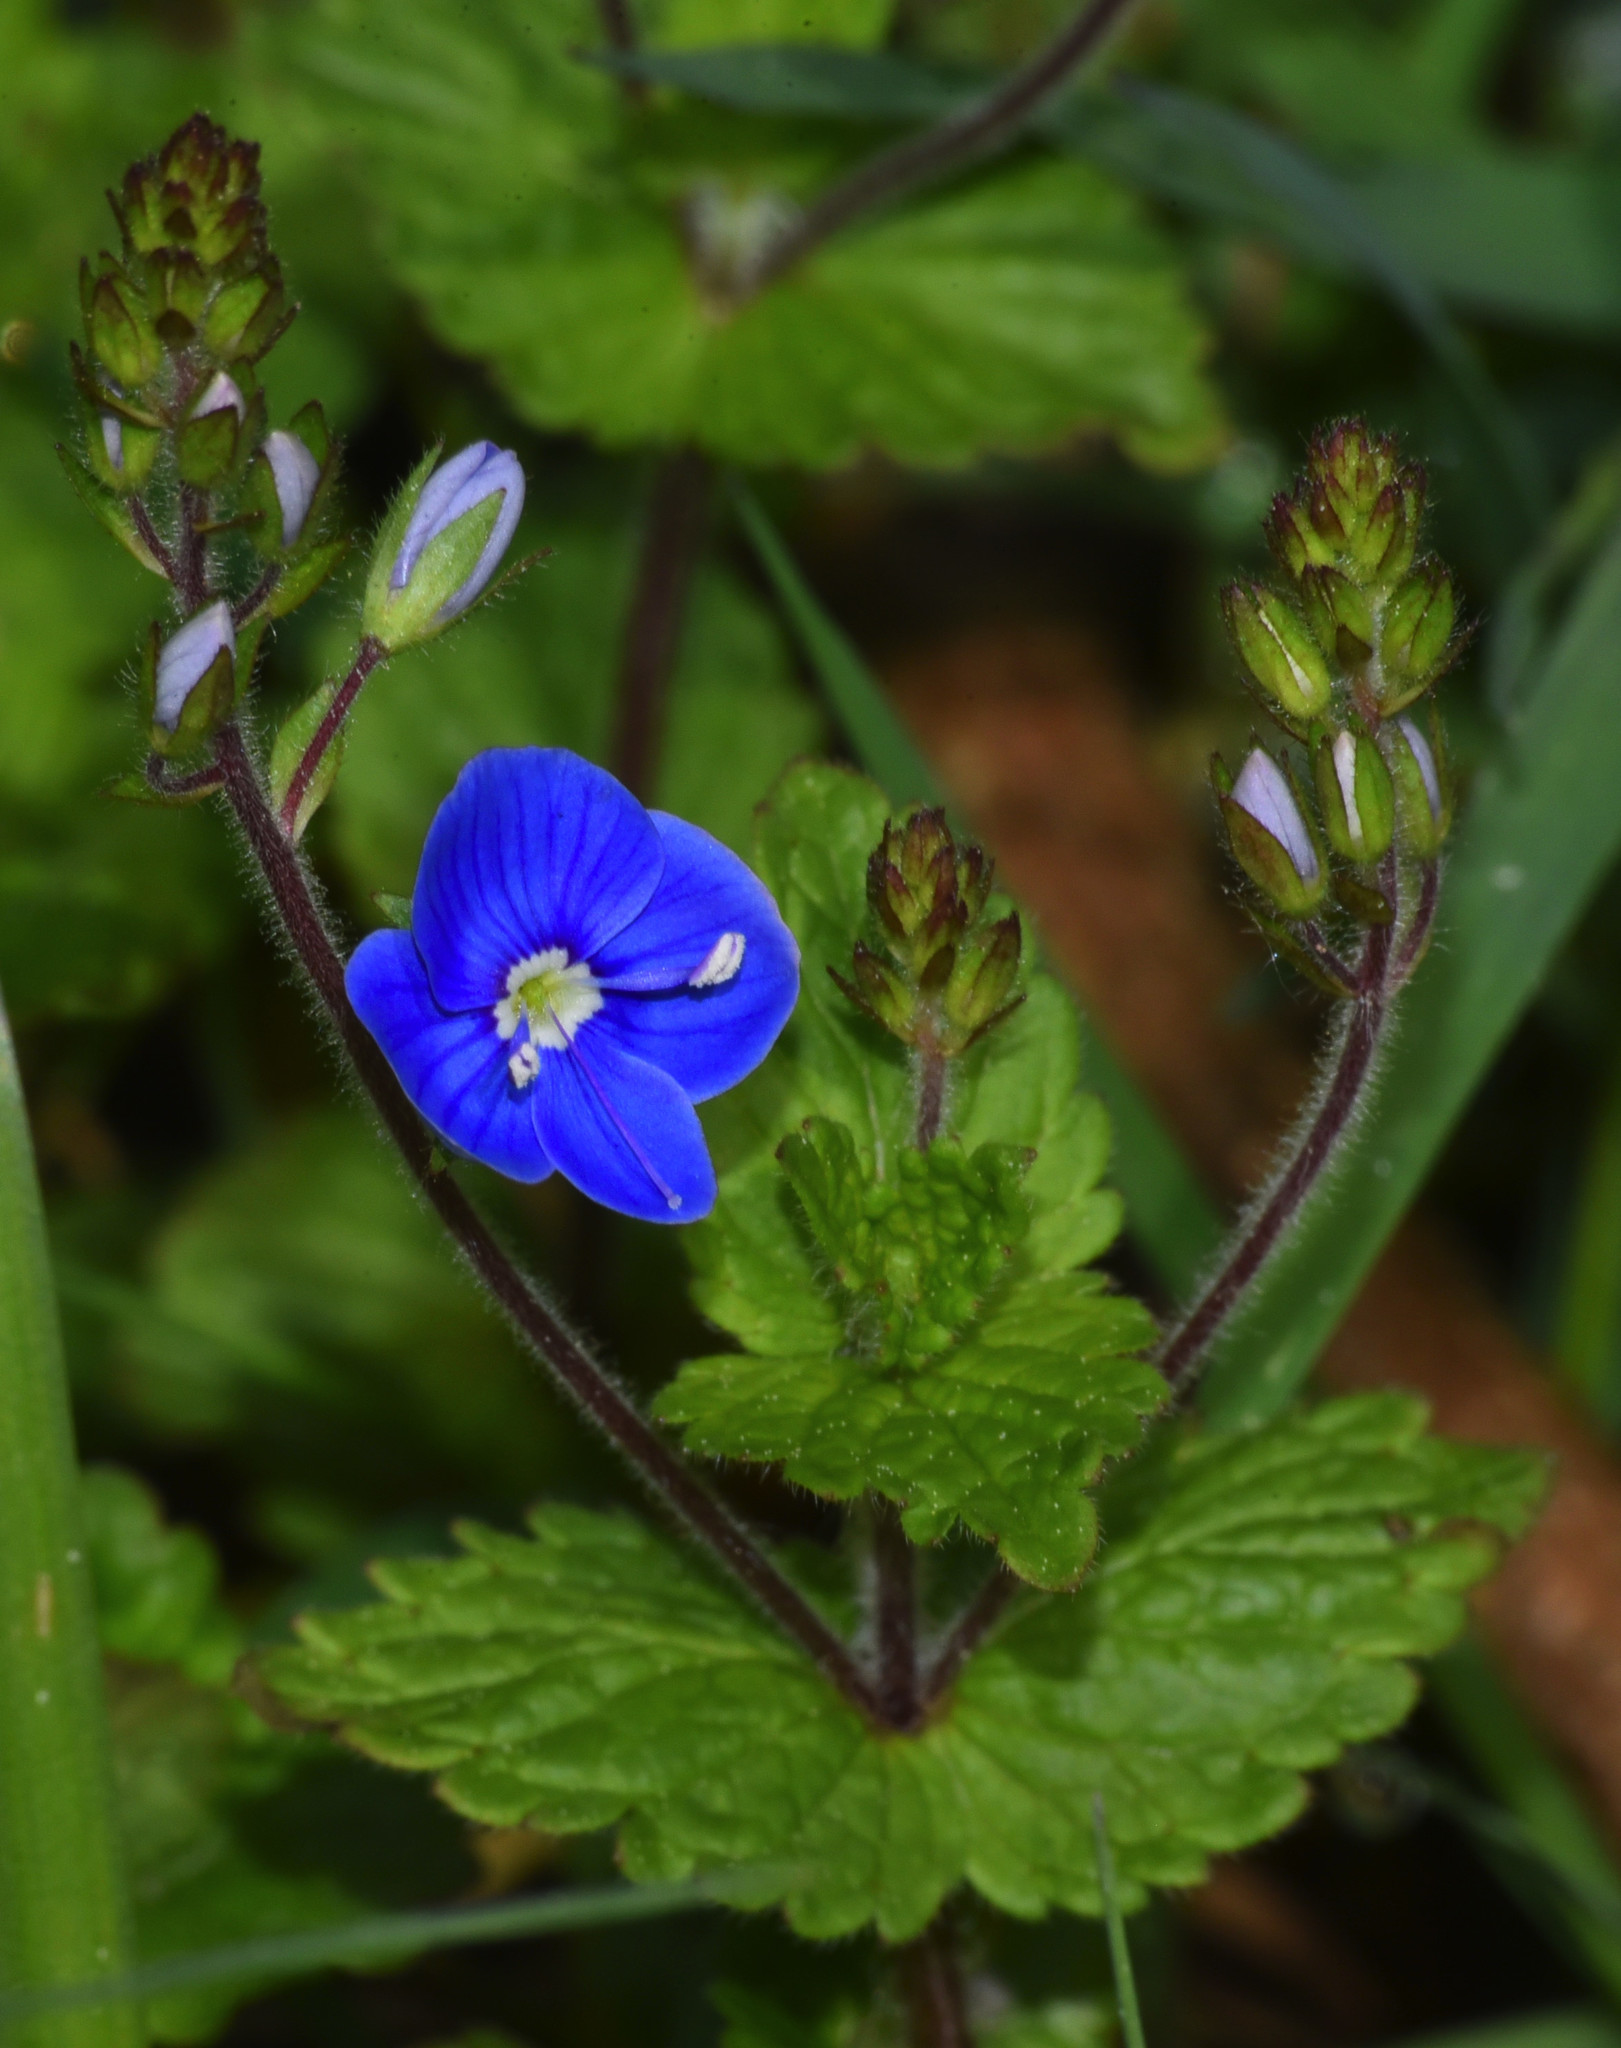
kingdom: Plantae
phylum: Tracheophyta
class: Magnoliopsida
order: Lamiales
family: Plantaginaceae
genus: Veronica
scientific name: Veronica chamaedrys
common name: Germander speedwell
